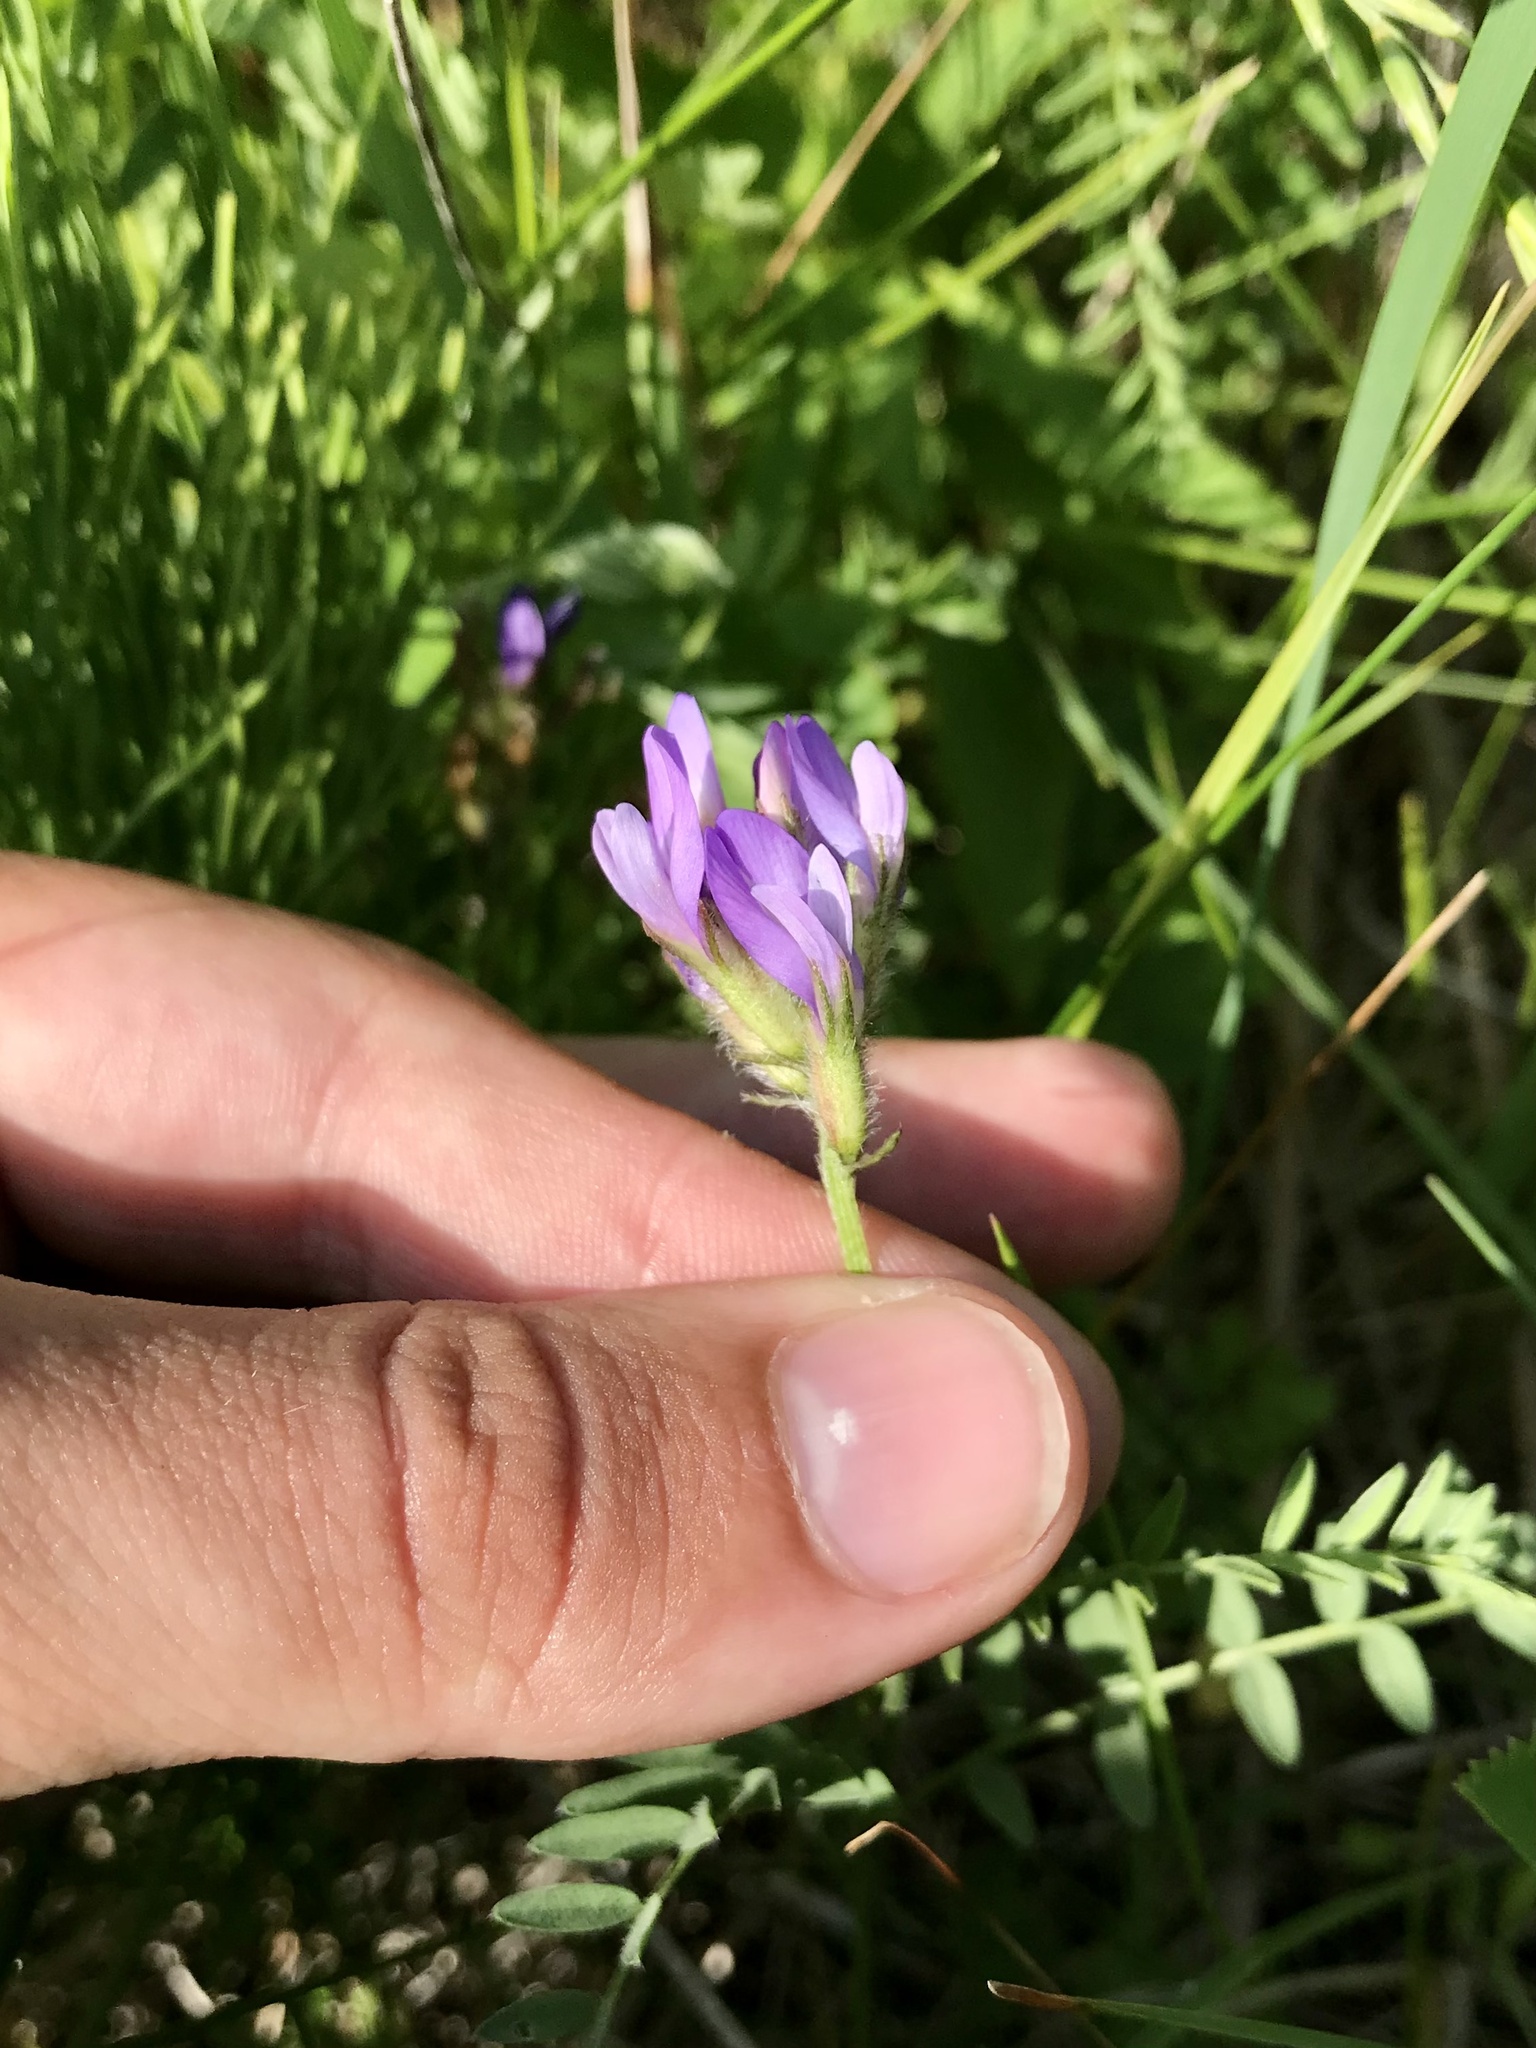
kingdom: Plantae
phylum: Tracheophyta
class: Magnoliopsida
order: Fabales
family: Fabaceae
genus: Astragalus
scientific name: Astragalus agrestis
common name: Field milk-vetch
